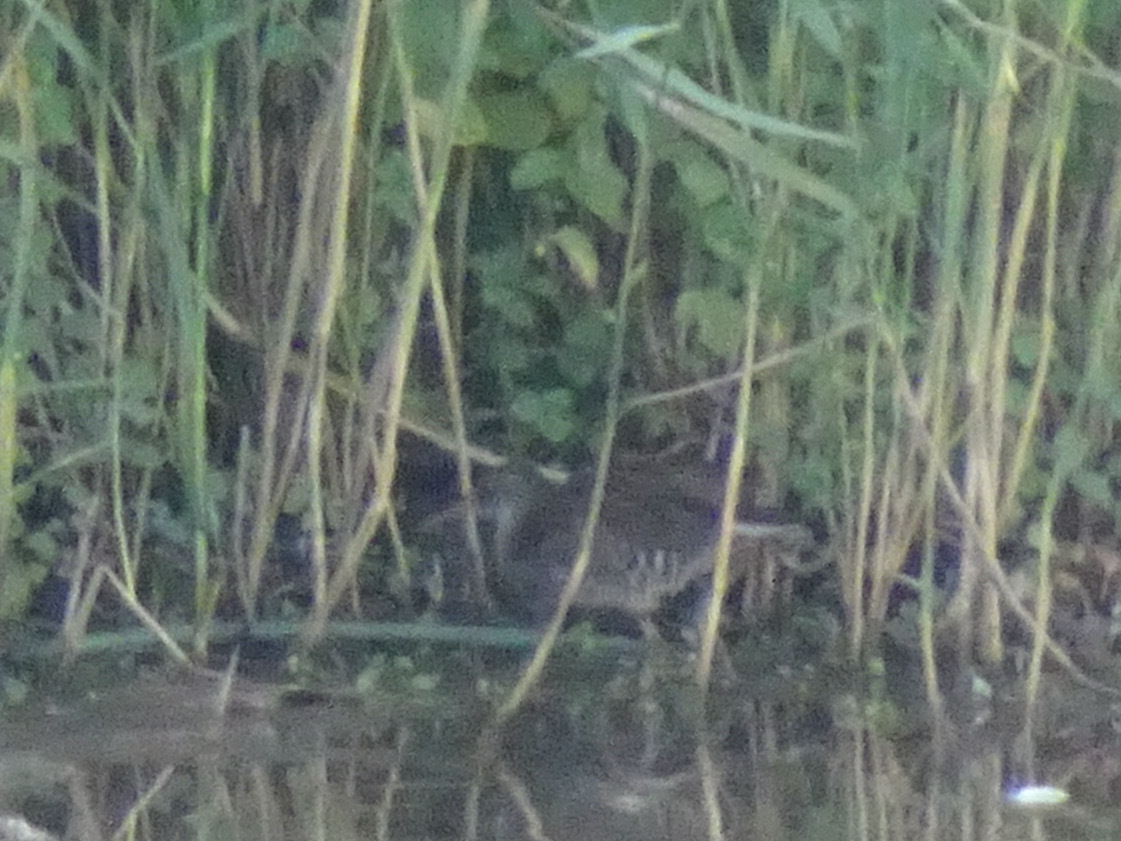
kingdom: Animalia
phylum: Chordata
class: Aves
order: Gruiformes
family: Rallidae
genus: Rallus
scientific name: Rallus aquaticus
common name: Water rail
